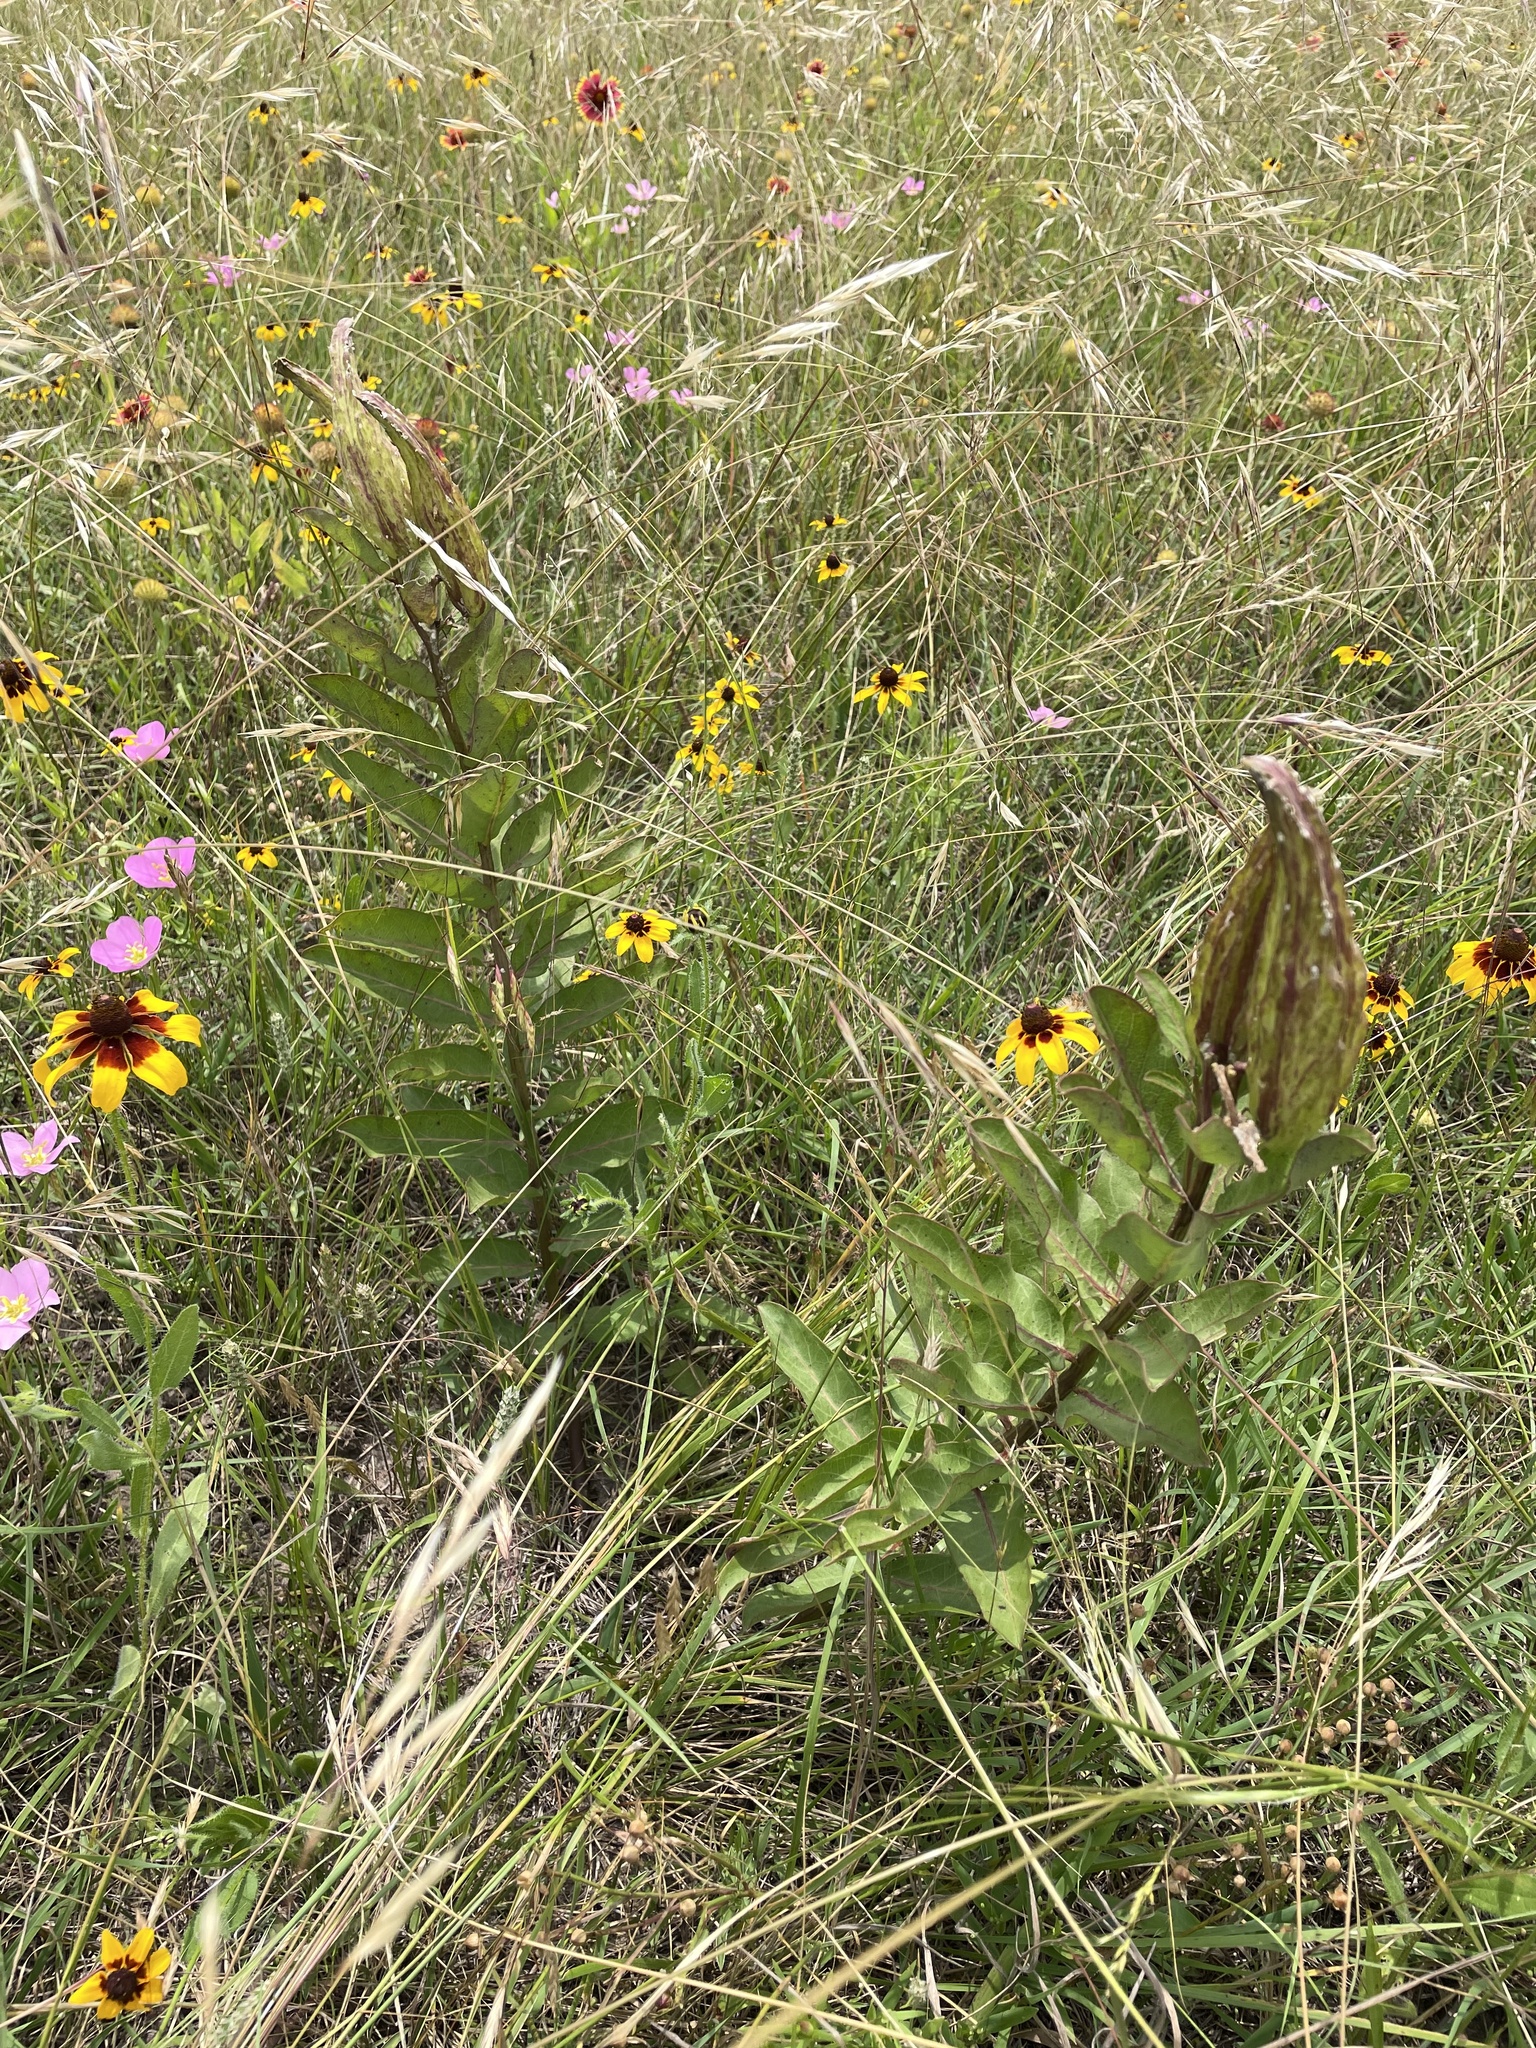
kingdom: Plantae
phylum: Tracheophyta
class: Magnoliopsida
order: Gentianales
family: Apocynaceae
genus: Asclepias
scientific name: Asclepias viridis
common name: Antelope-horns
